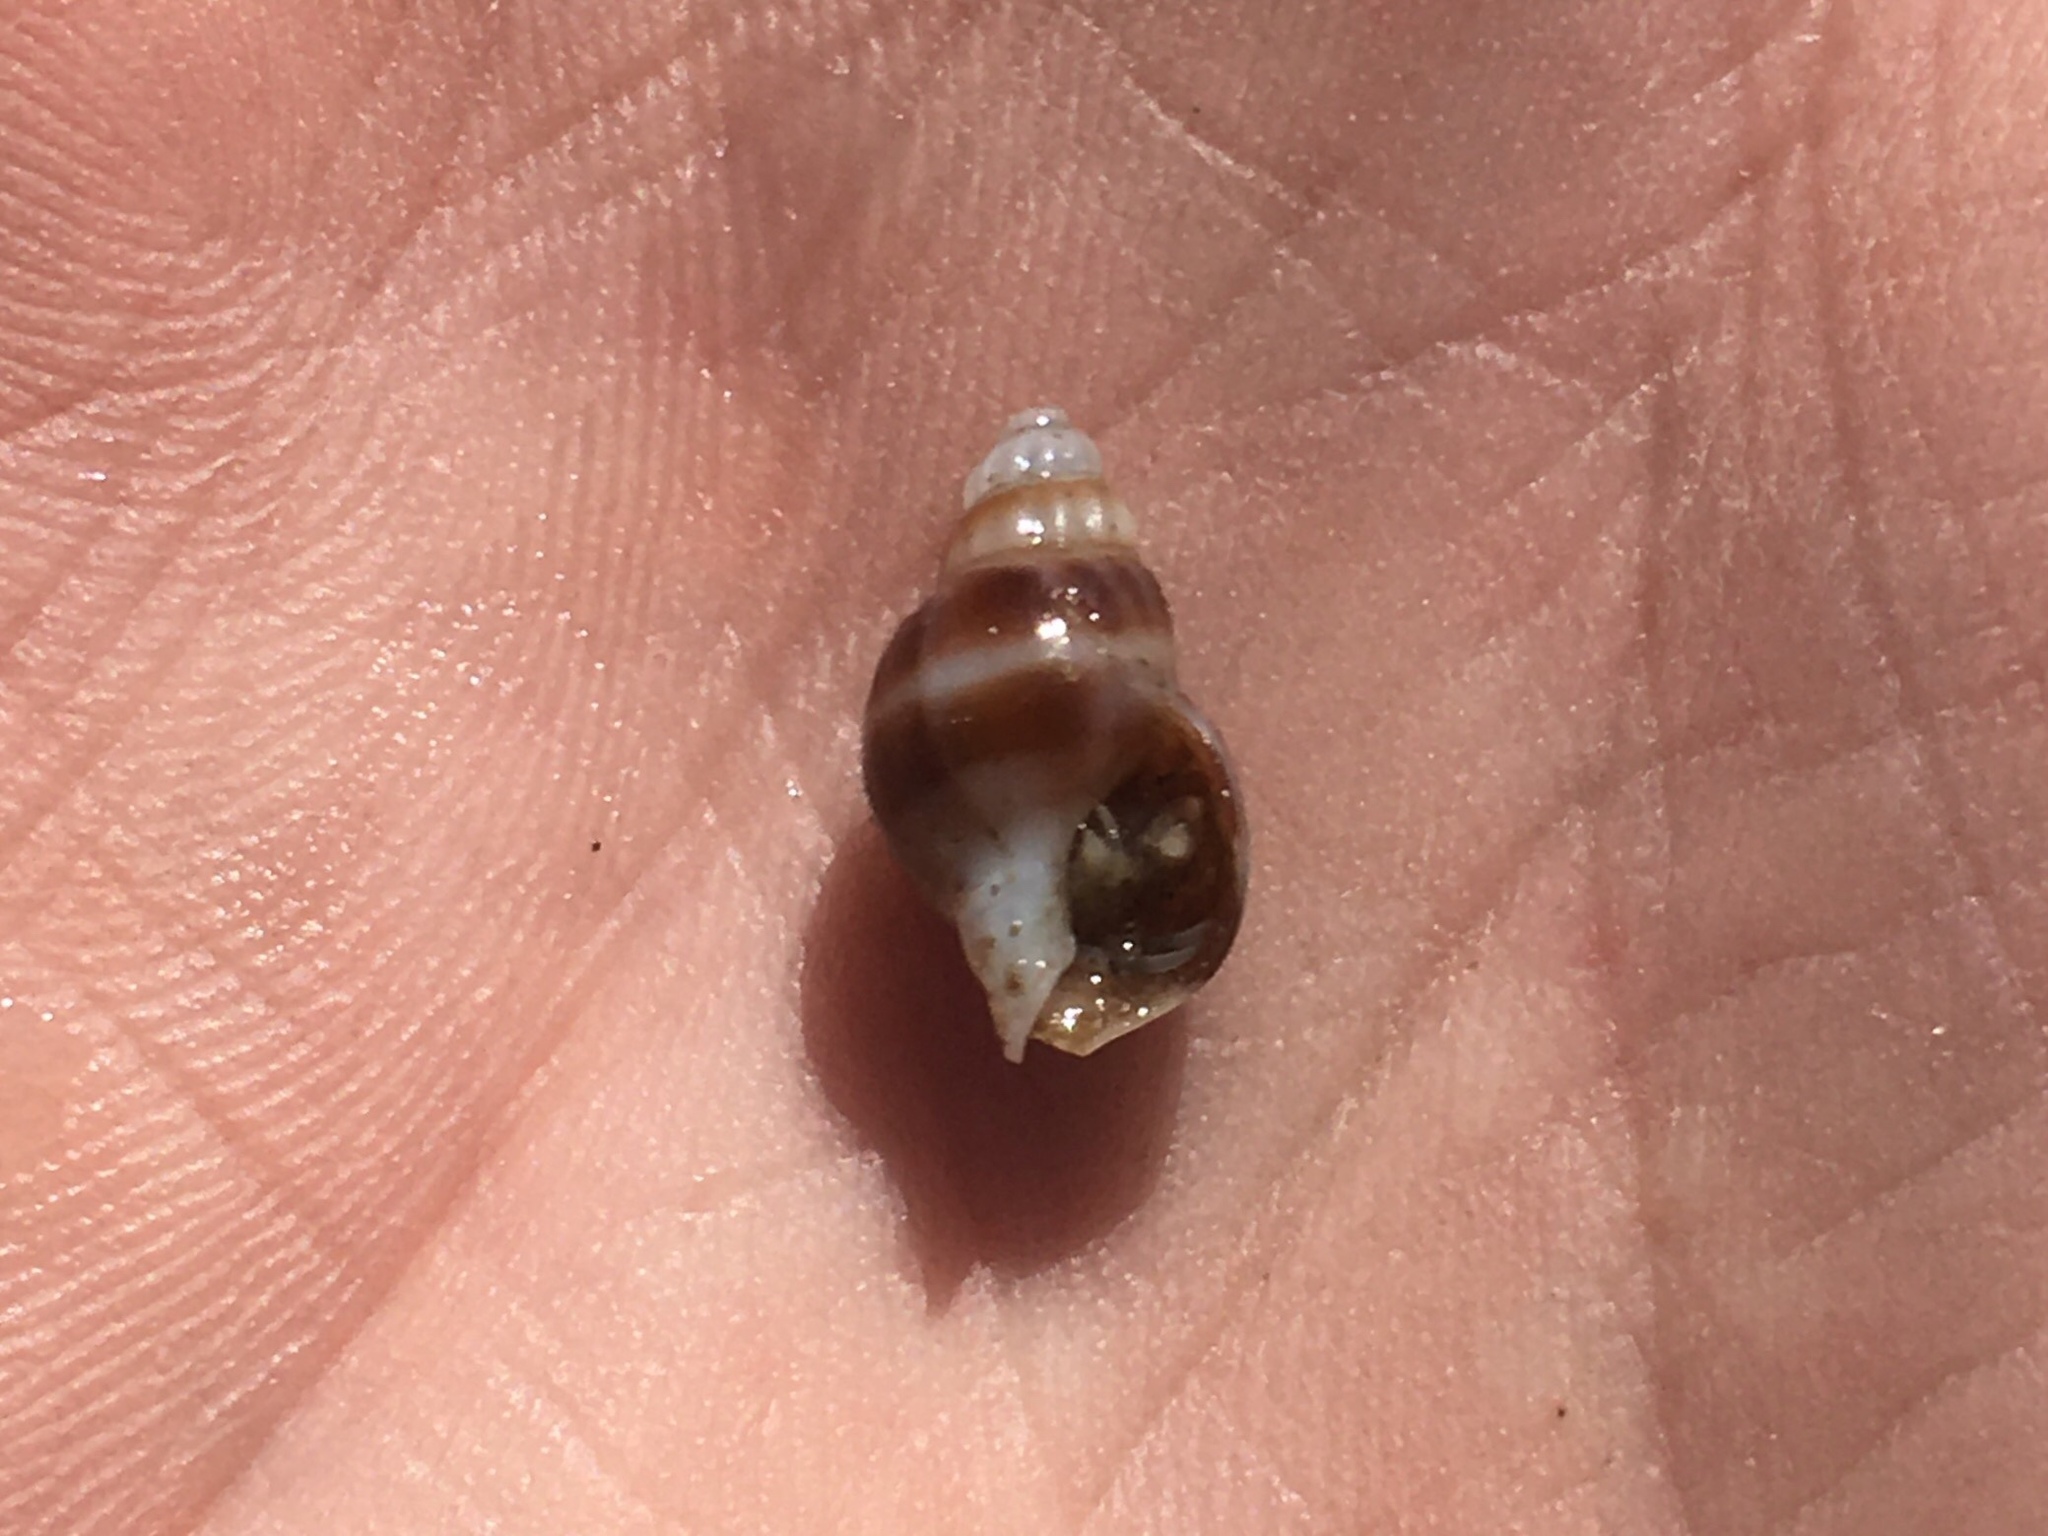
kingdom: Animalia
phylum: Mollusca
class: Gastropoda
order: Neogastropoda
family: Columbellidae
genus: Parvanachis
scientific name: Parvanachis paessleri
